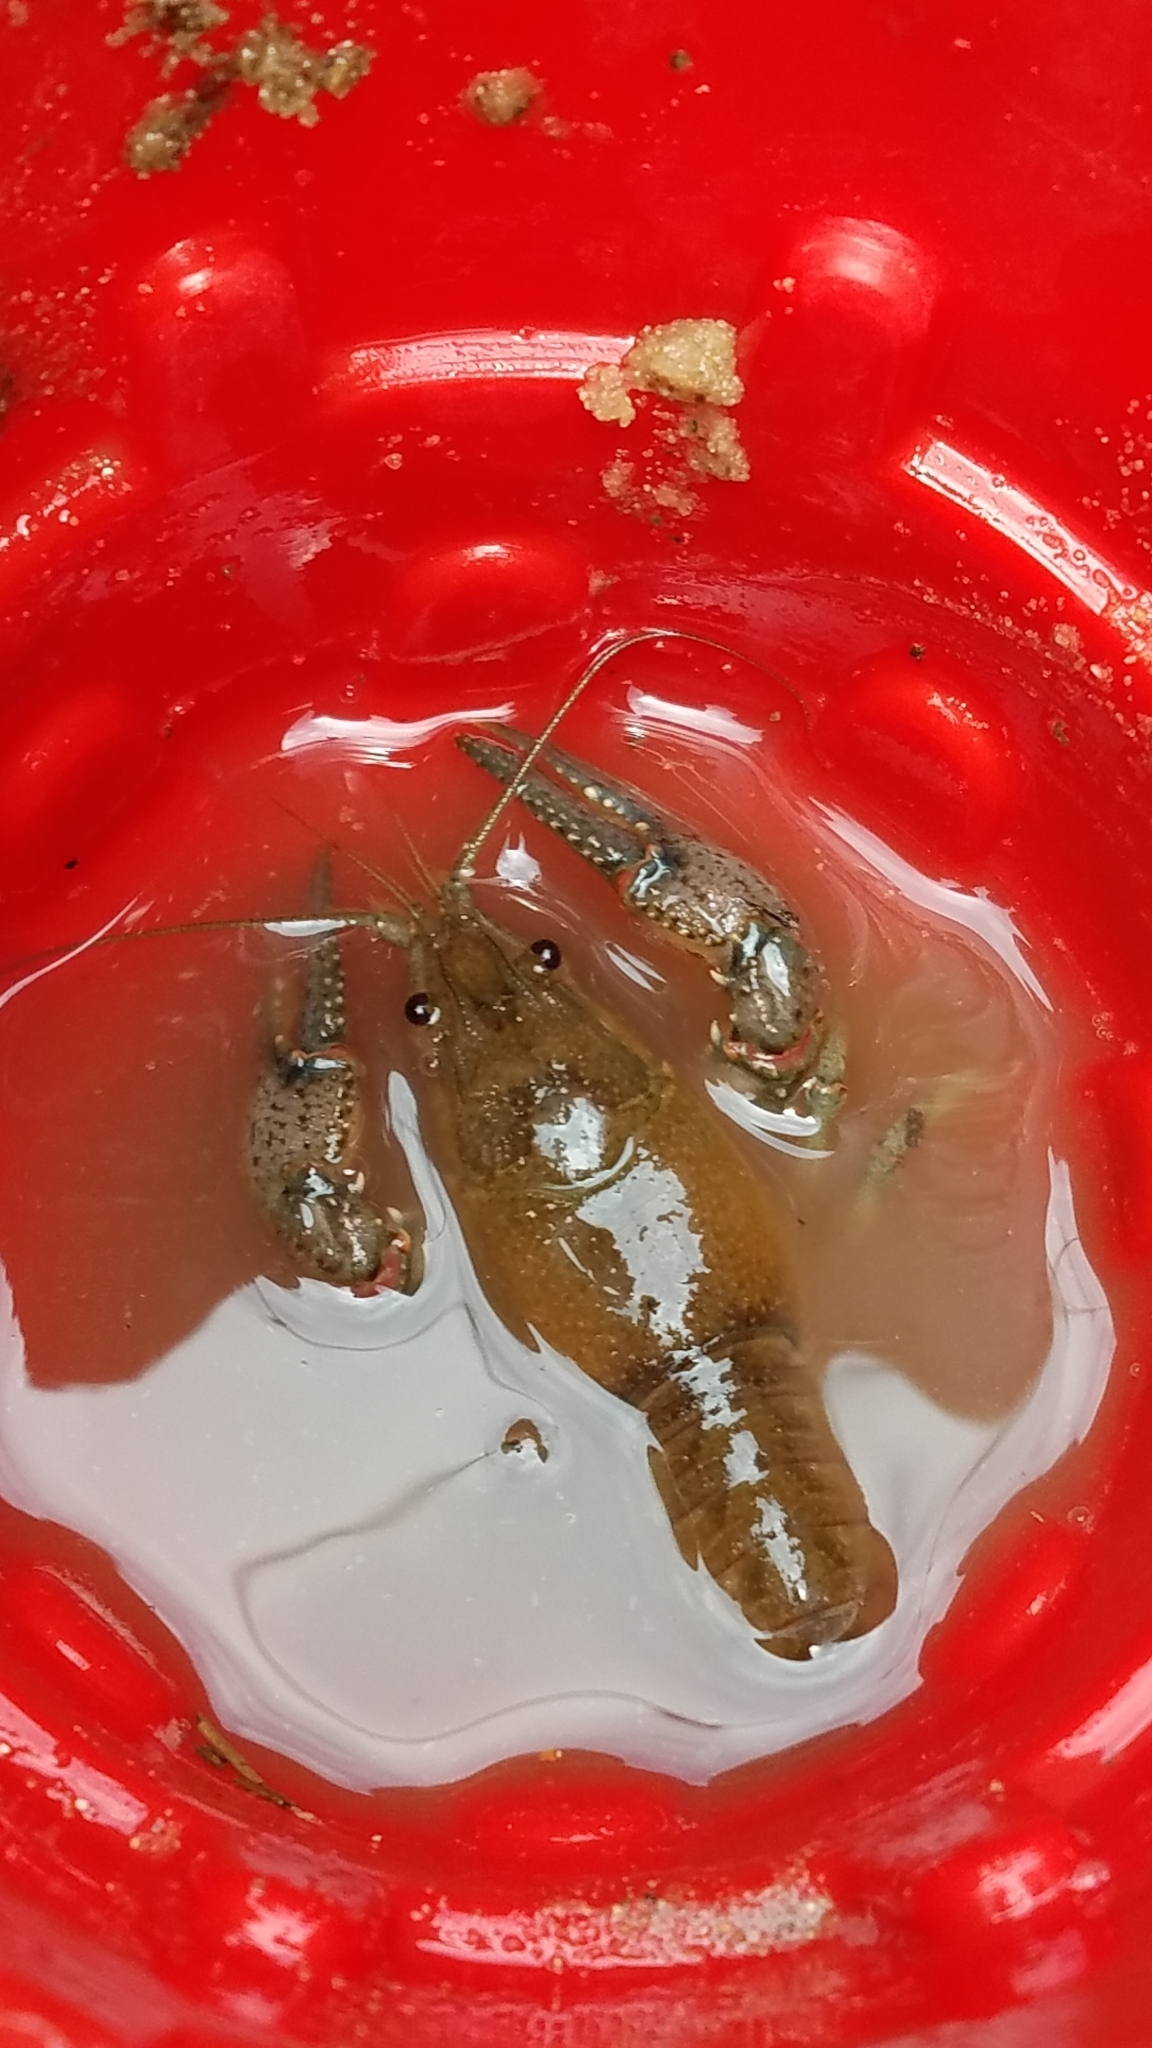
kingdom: Animalia
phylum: Arthropoda
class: Malacostraca
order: Decapoda
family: Cambaridae
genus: Faxonius
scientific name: Faxonius virilis
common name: Virile crayfish
